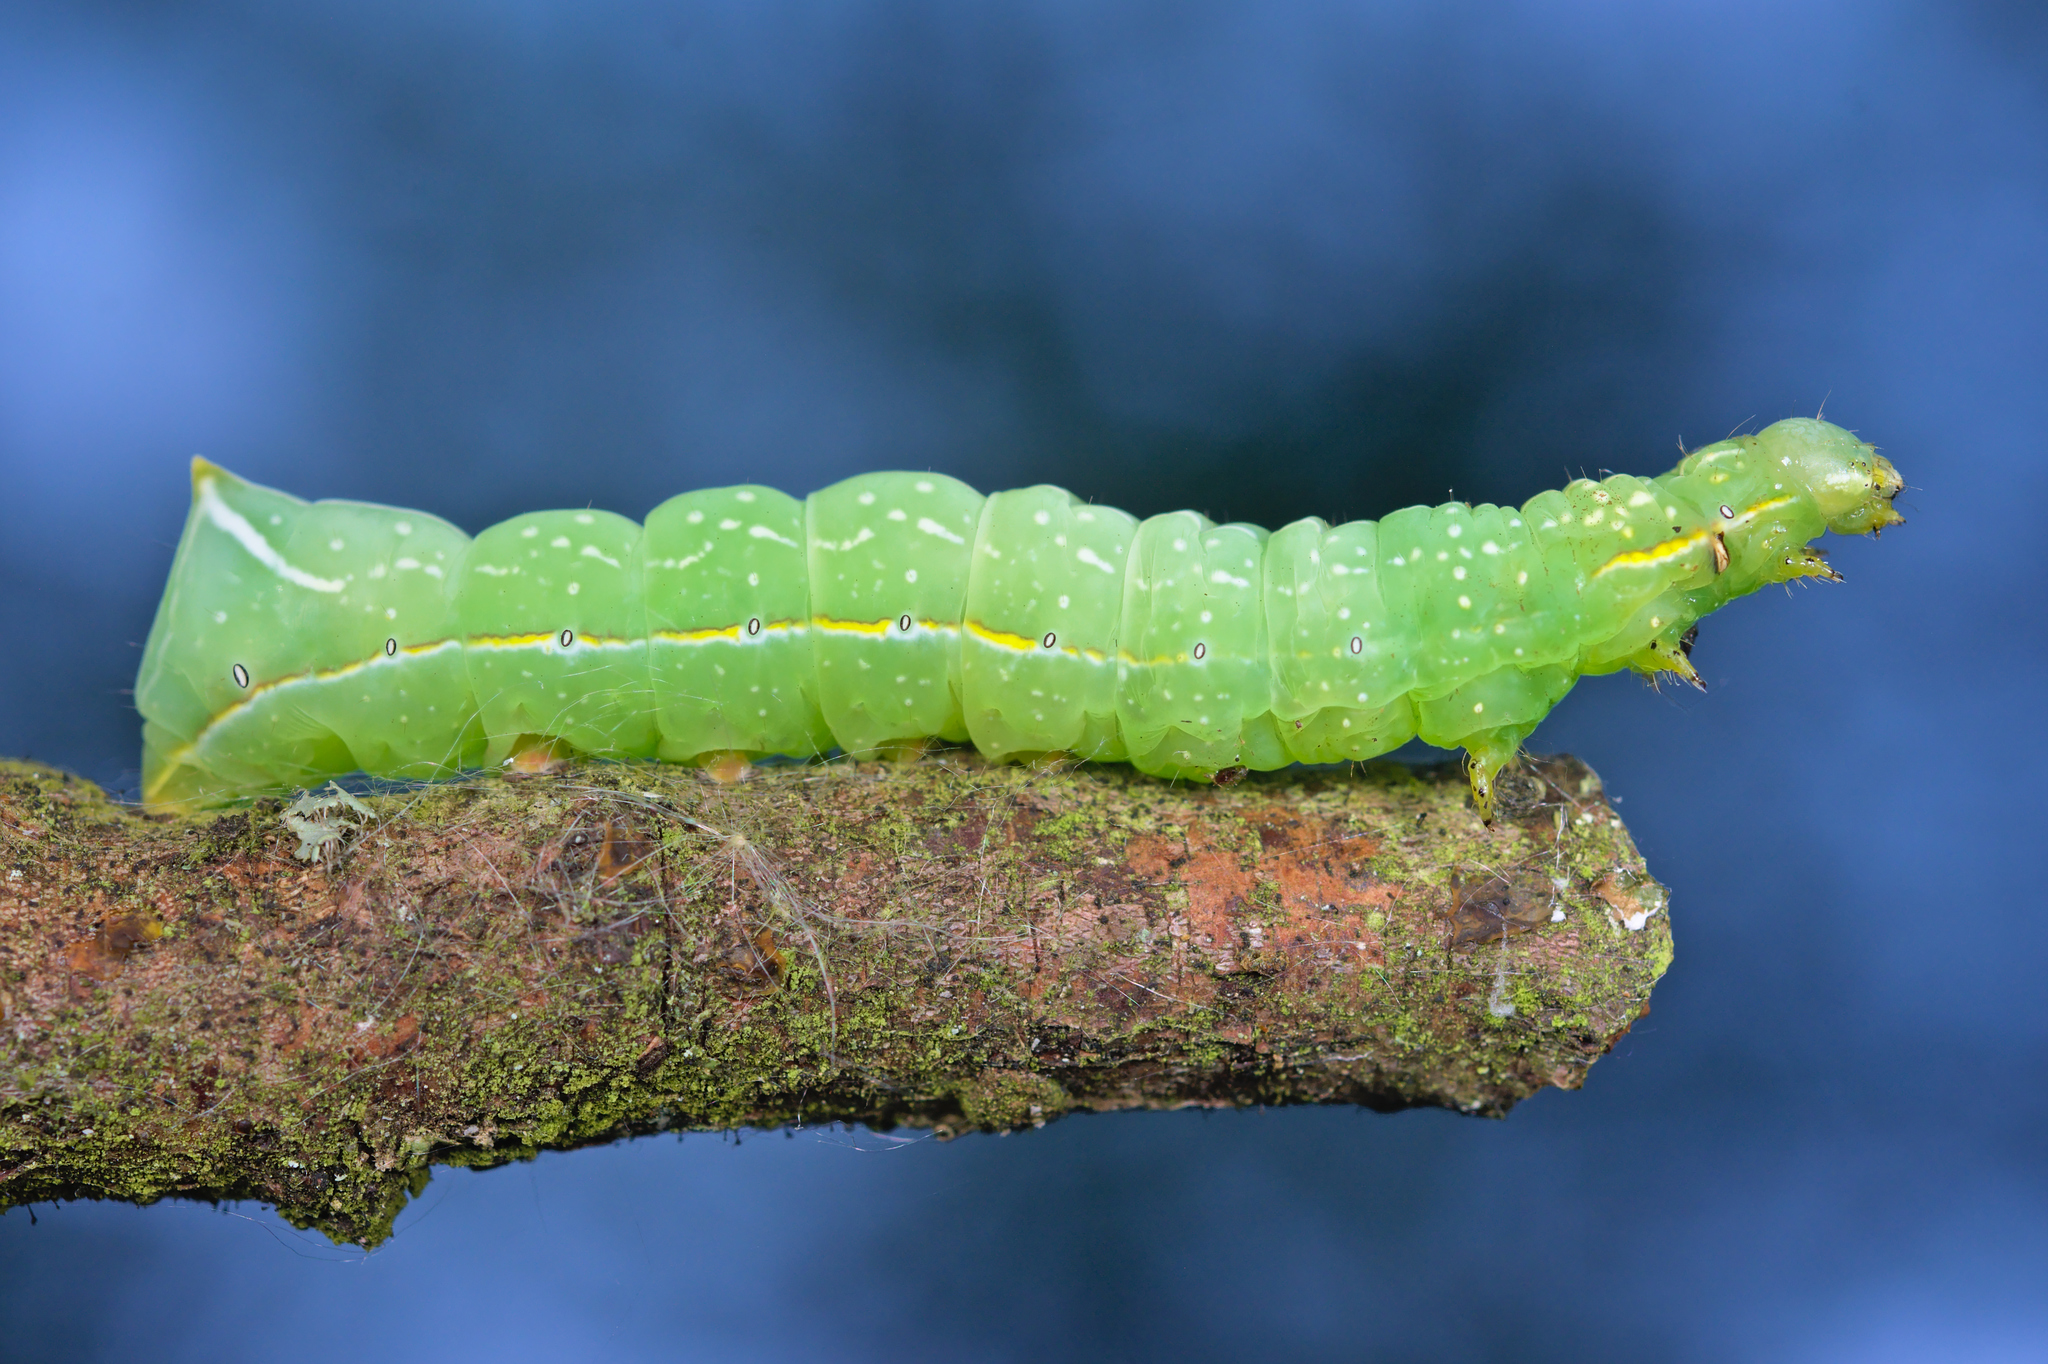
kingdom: Animalia
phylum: Arthropoda
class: Insecta
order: Lepidoptera
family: Noctuidae
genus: Amphipyra
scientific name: Amphipyra pyramidea
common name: Copper underwing
